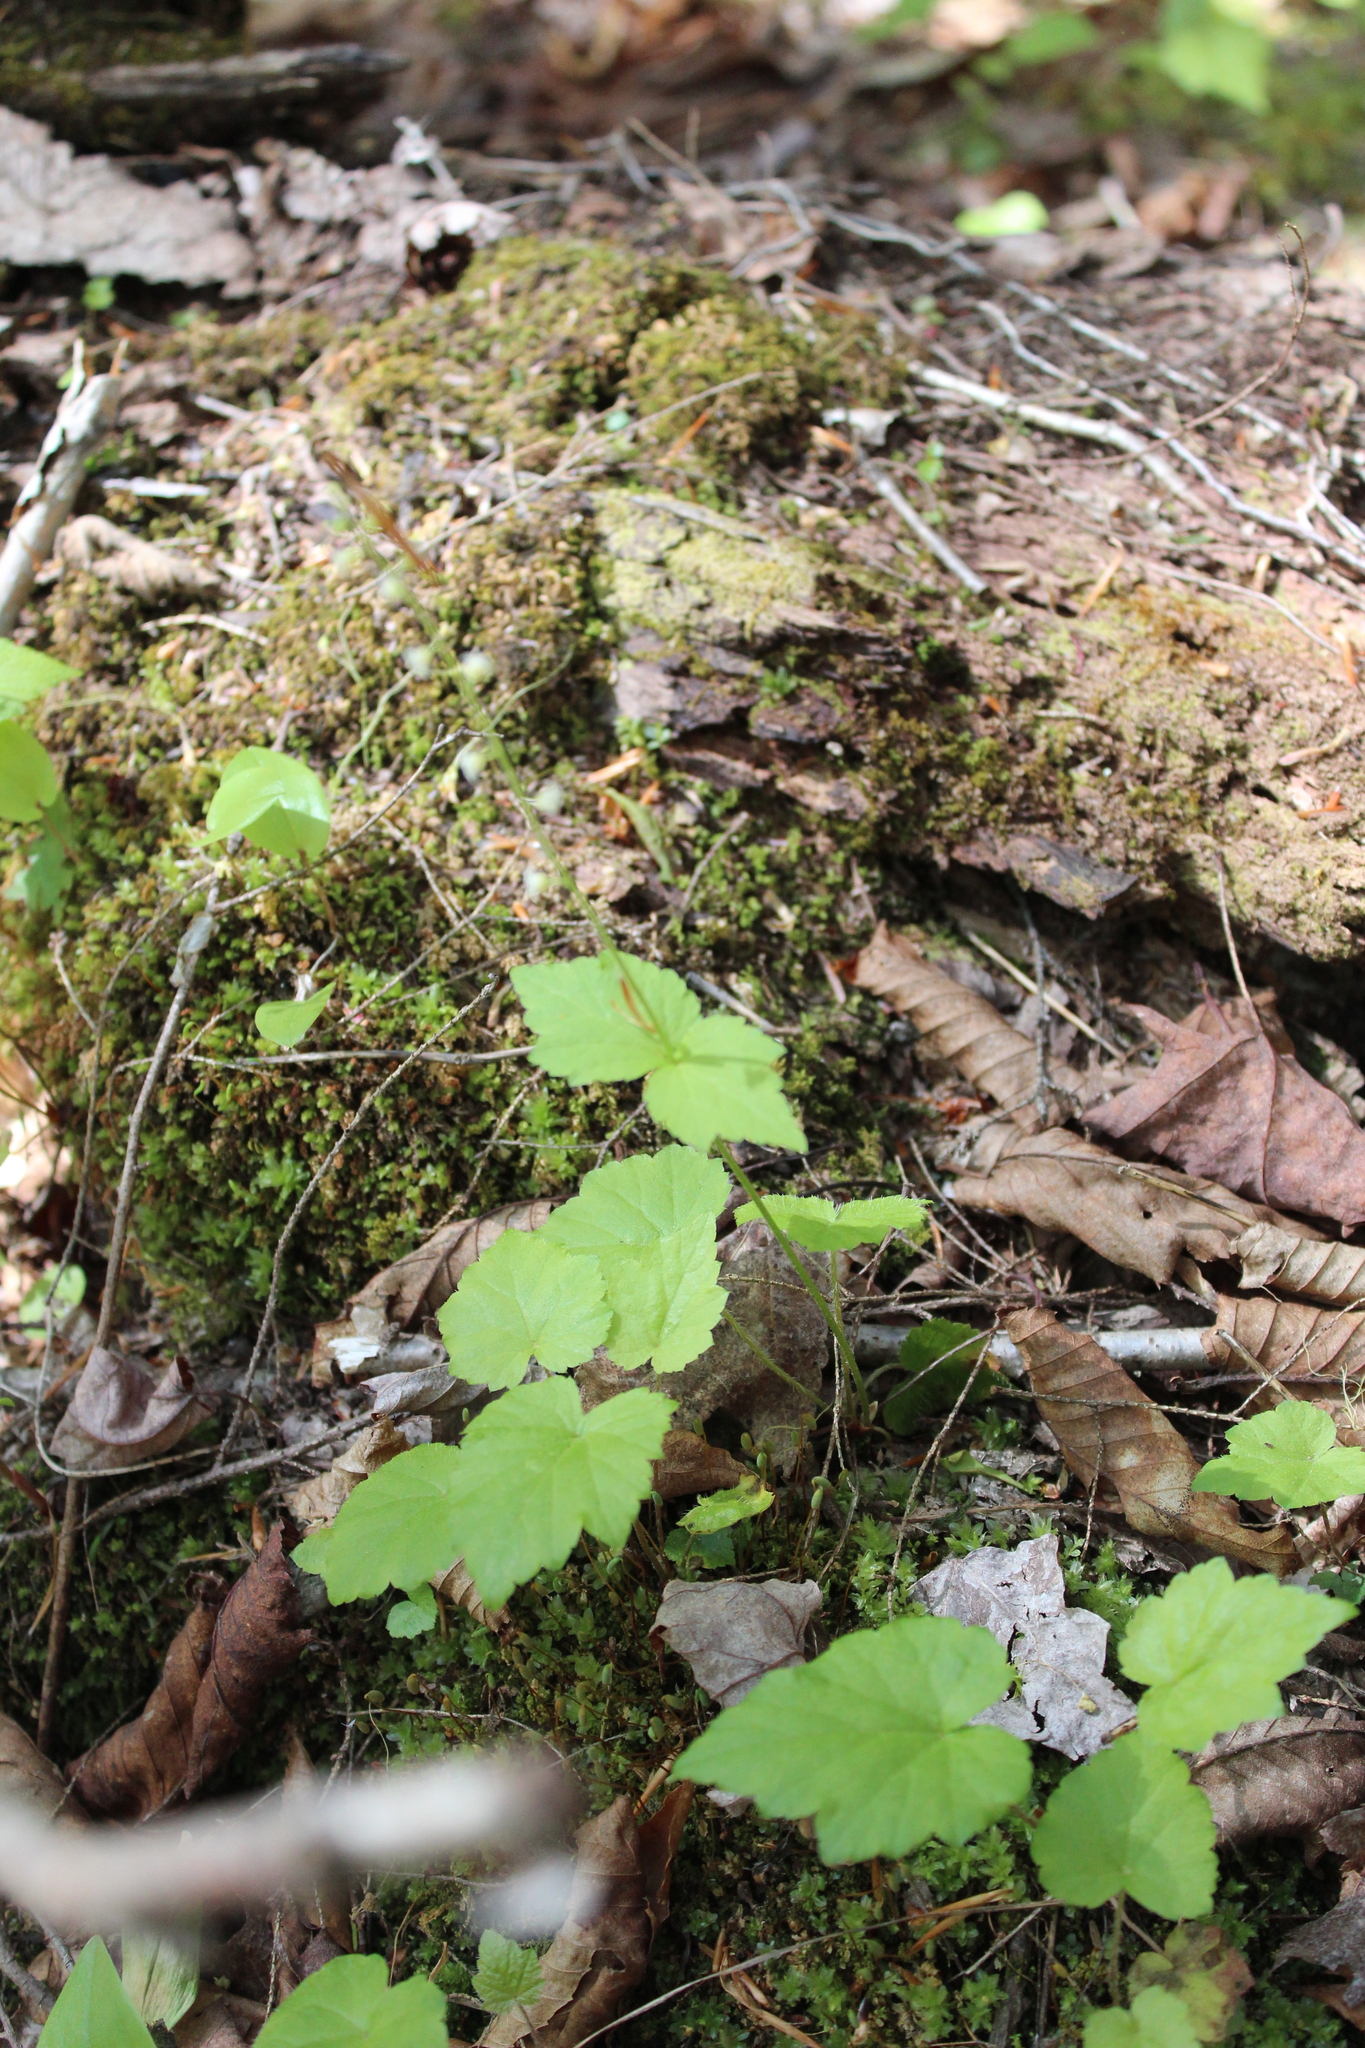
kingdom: Plantae
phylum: Tracheophyta
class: Magnoliopsida
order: Saxifragales
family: Saxifragaceae
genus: Mitella
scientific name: Mitella diphylla
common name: Coolwort
